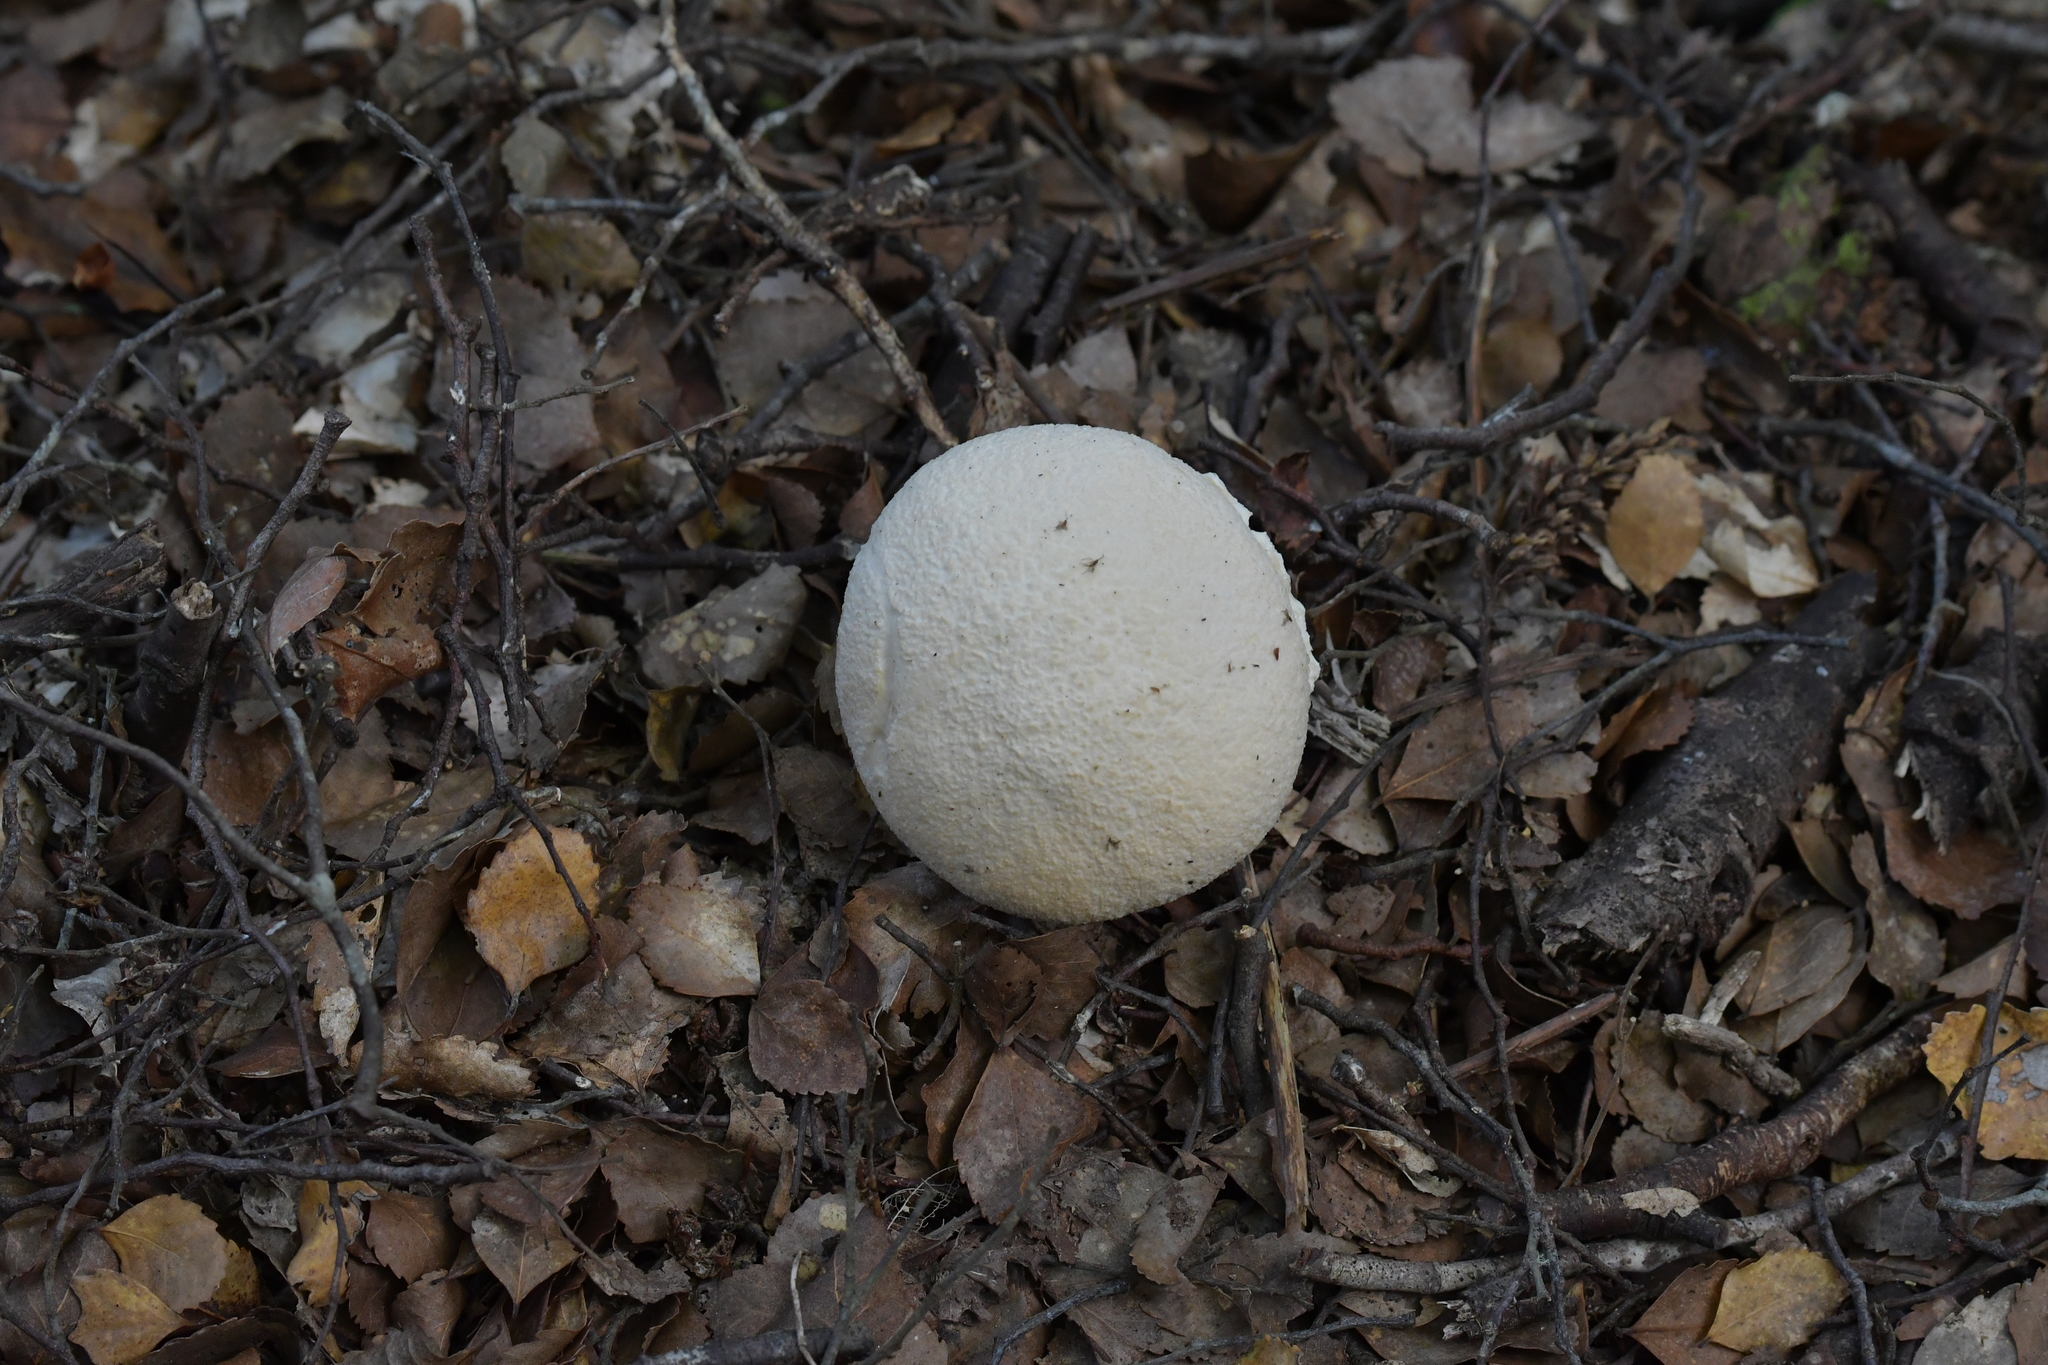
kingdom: Fungi
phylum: Basidiomycota
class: Agaricomycetes
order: Boletales
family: Boletaceae
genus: Fistulinella
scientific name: Fistulinella nivea
